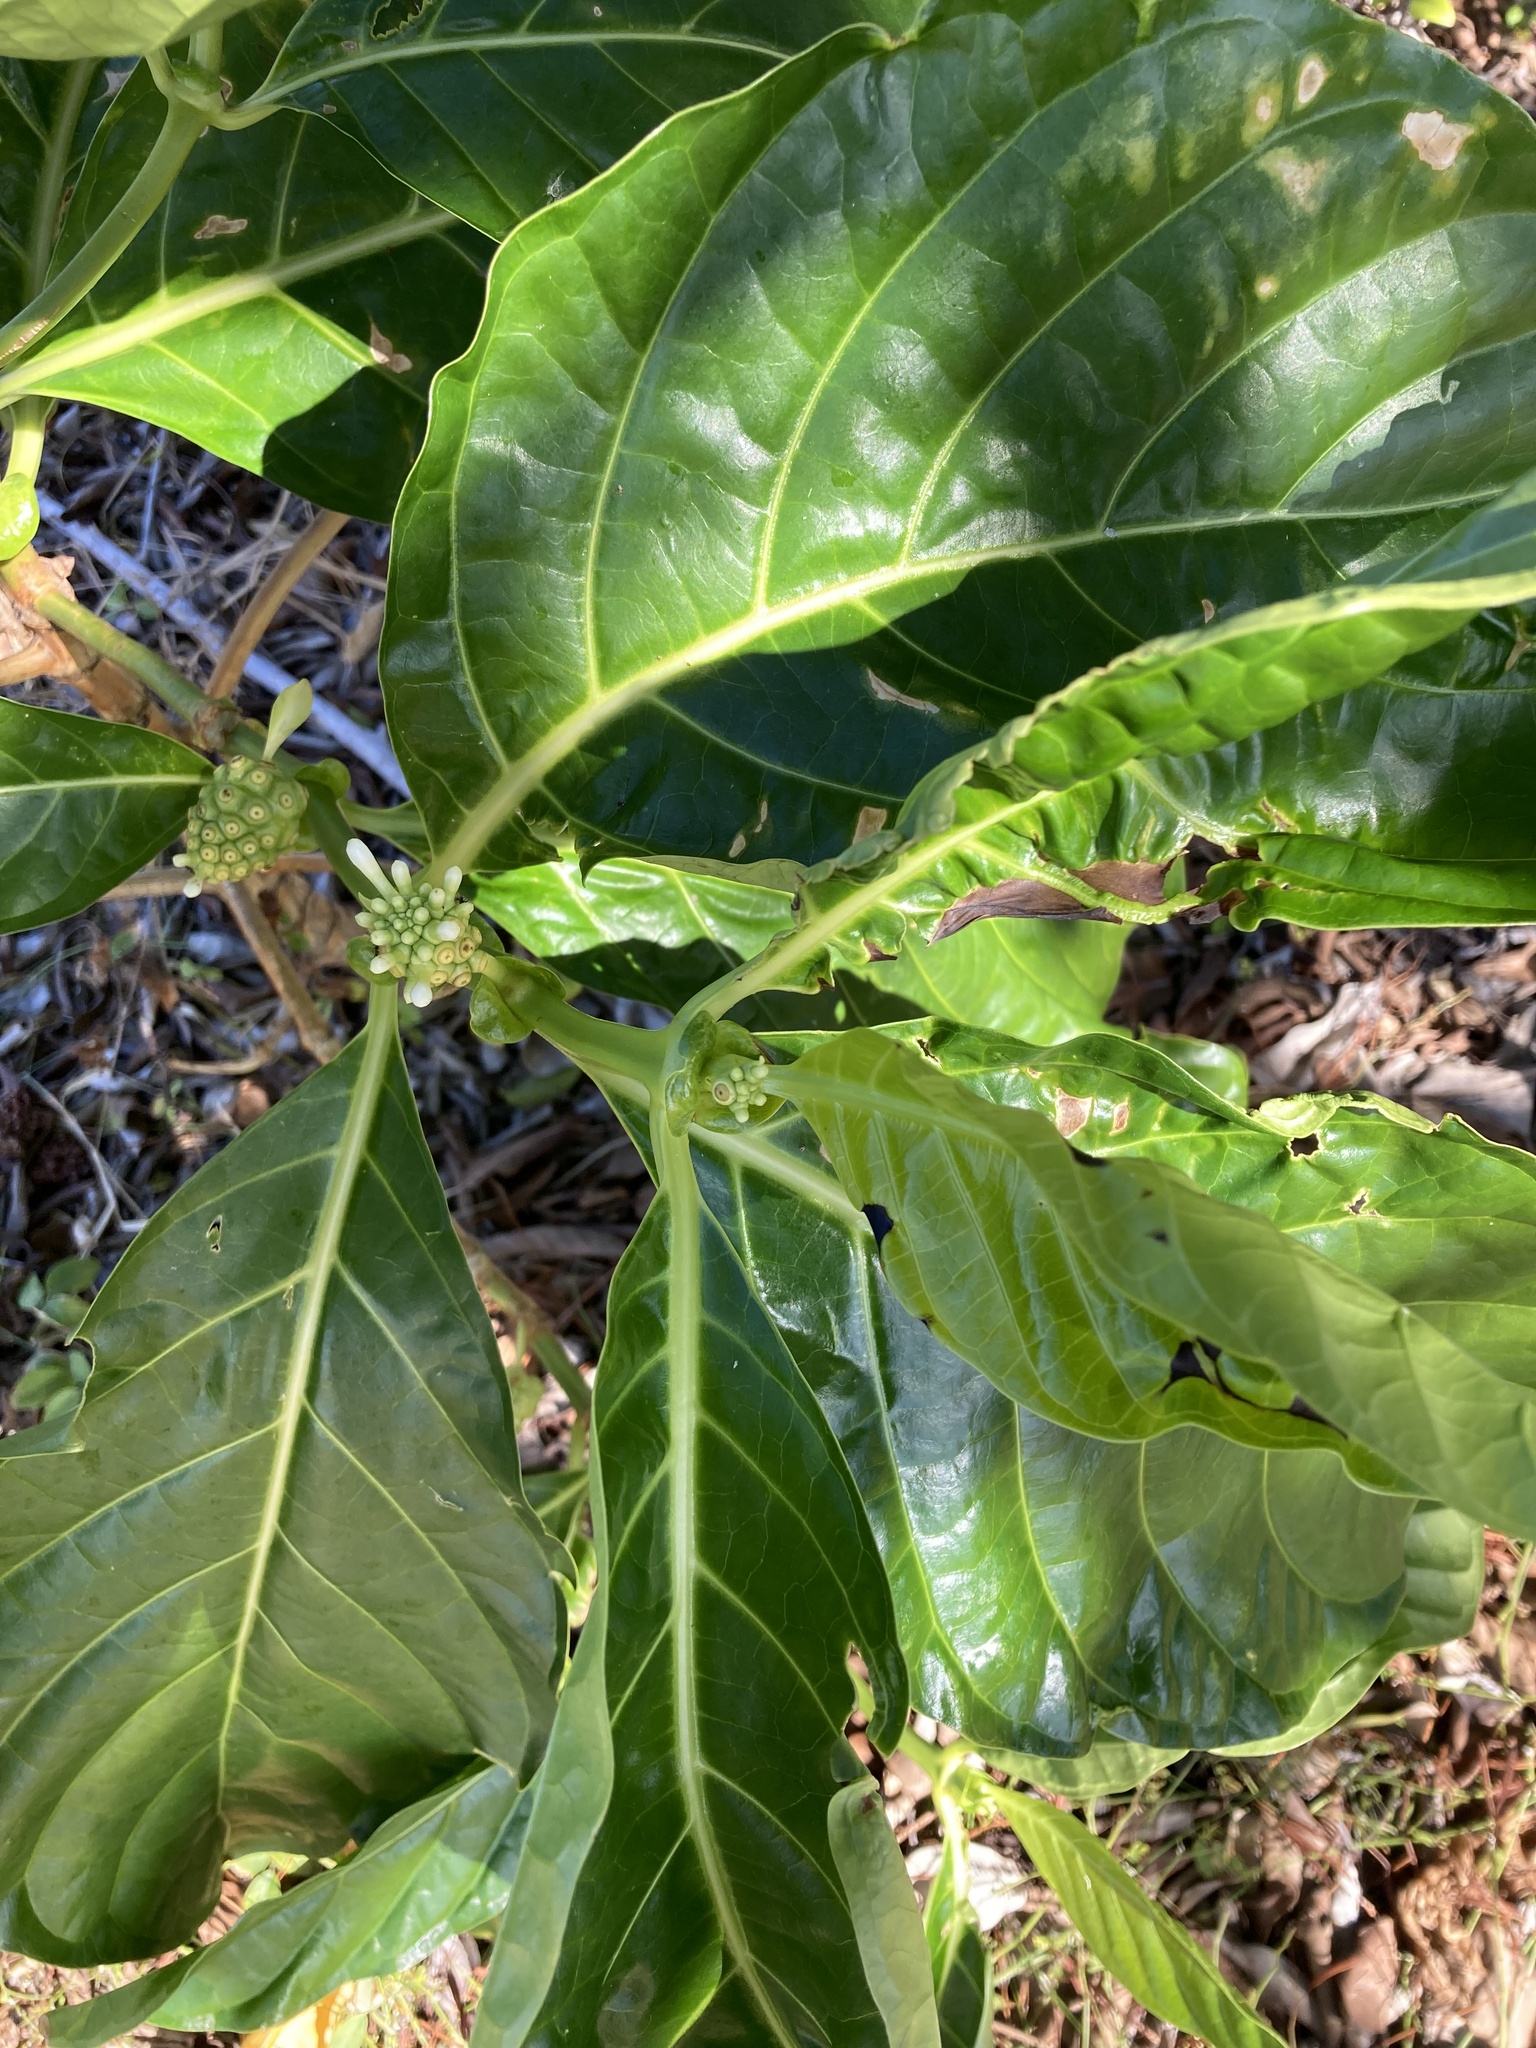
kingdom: Plantae
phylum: Tracheophyta
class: Magnoliopsida
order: Gentianales
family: Rubiaceae
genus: Morinda
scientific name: Morinda citrifolia
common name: Indian-mulberry
